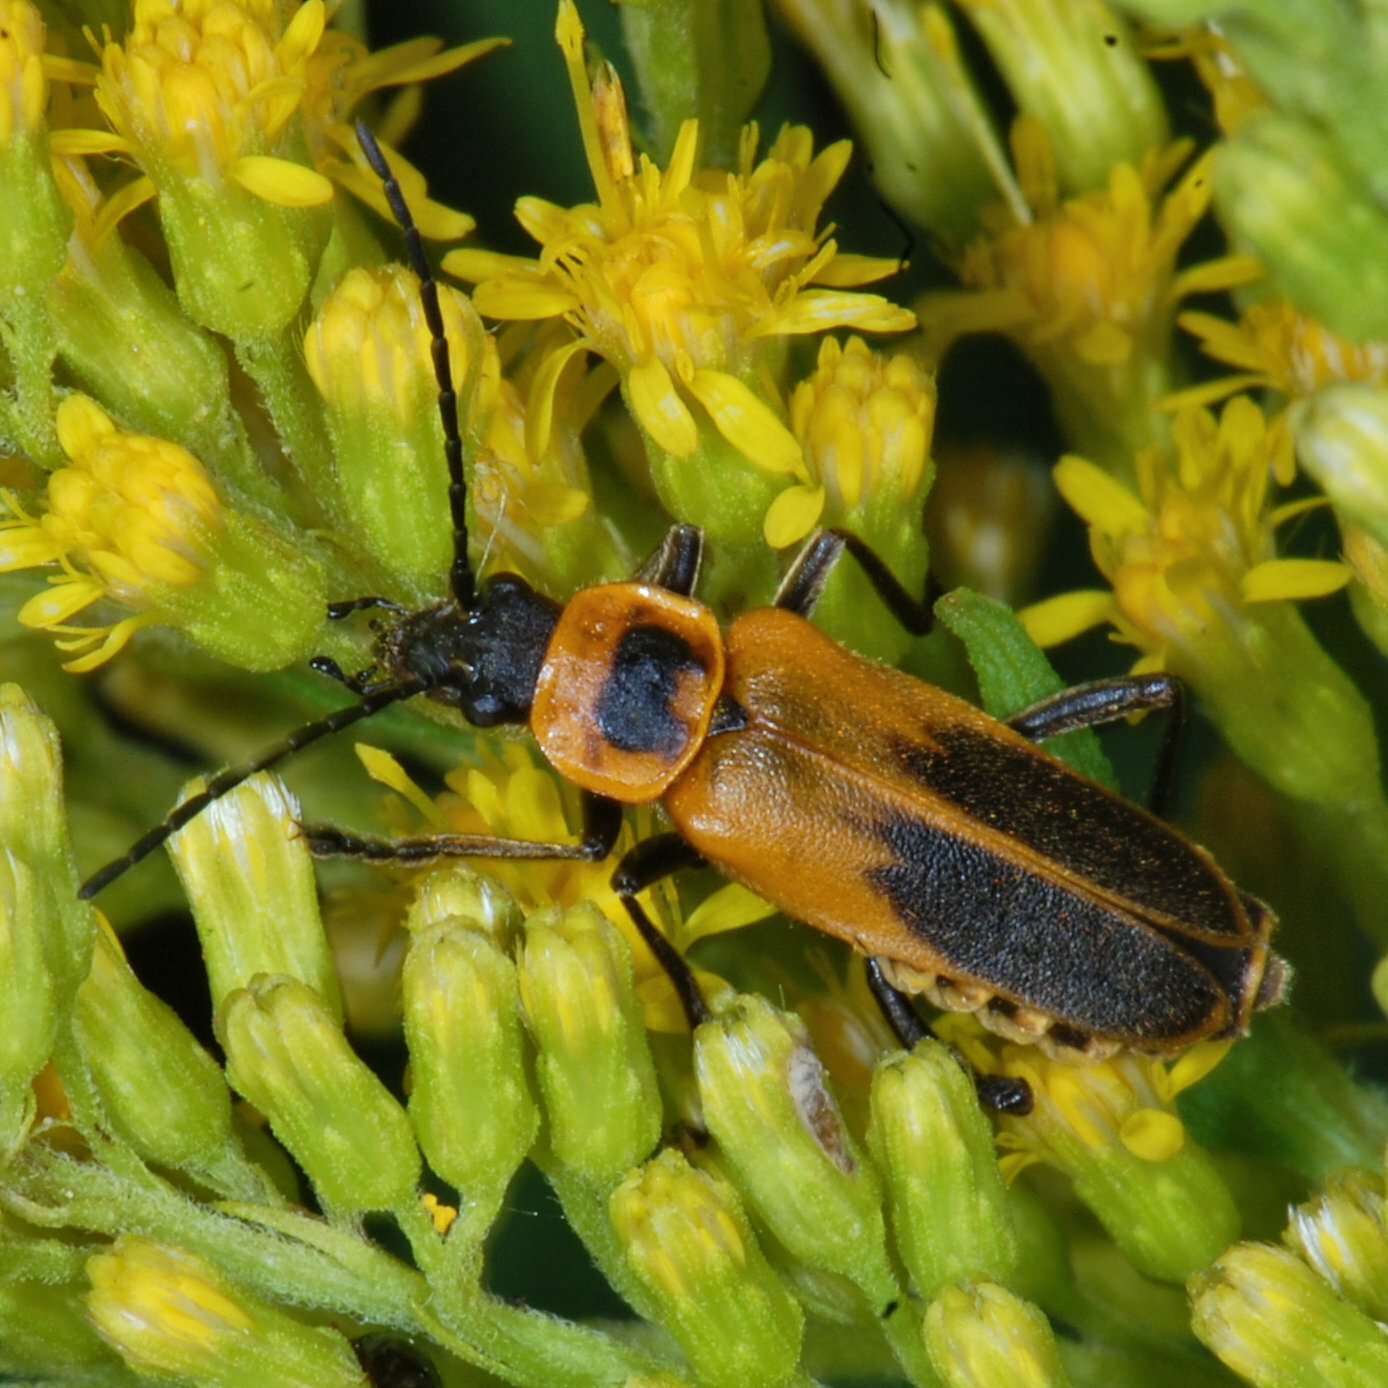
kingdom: Animalia
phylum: Arthropoda
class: Insecta
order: Coleoptera
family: Cantharidae
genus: Chauliognathus
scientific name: Chauliognathus pensylvanicus
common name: Goldenrod soldier beetle
